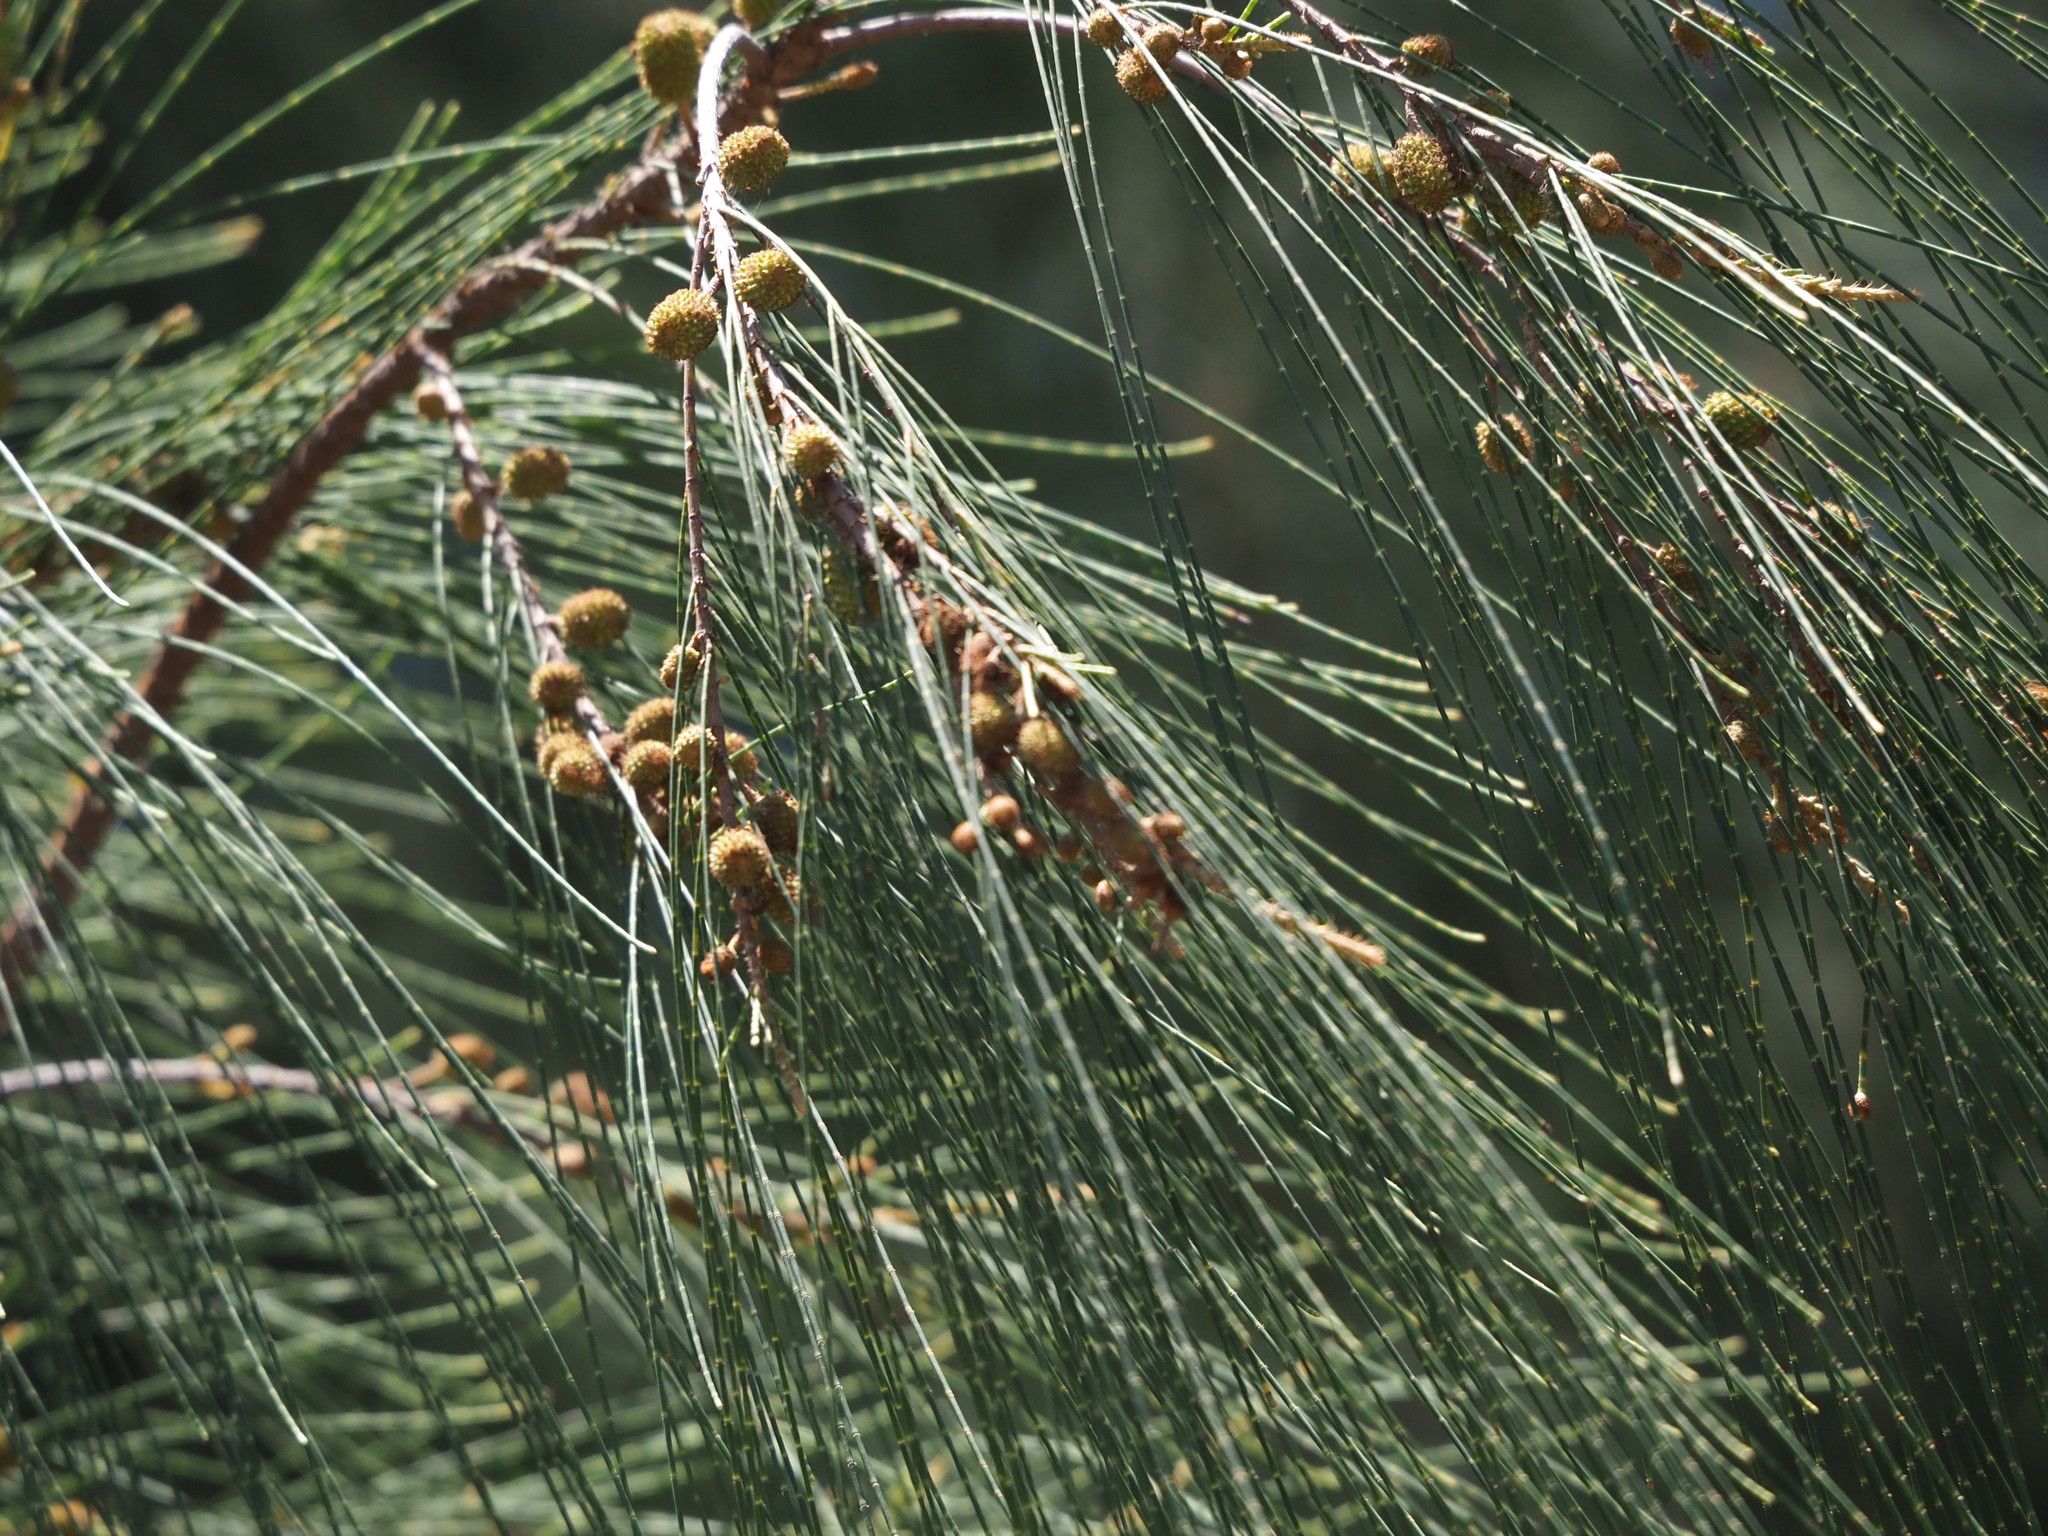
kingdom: Plantae
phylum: Tracheophyta
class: Magnoliopsida
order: Fagales
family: Casuarinaceae
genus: Casuarina
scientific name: Casuarina equisetifolia
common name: Beach sheoak
